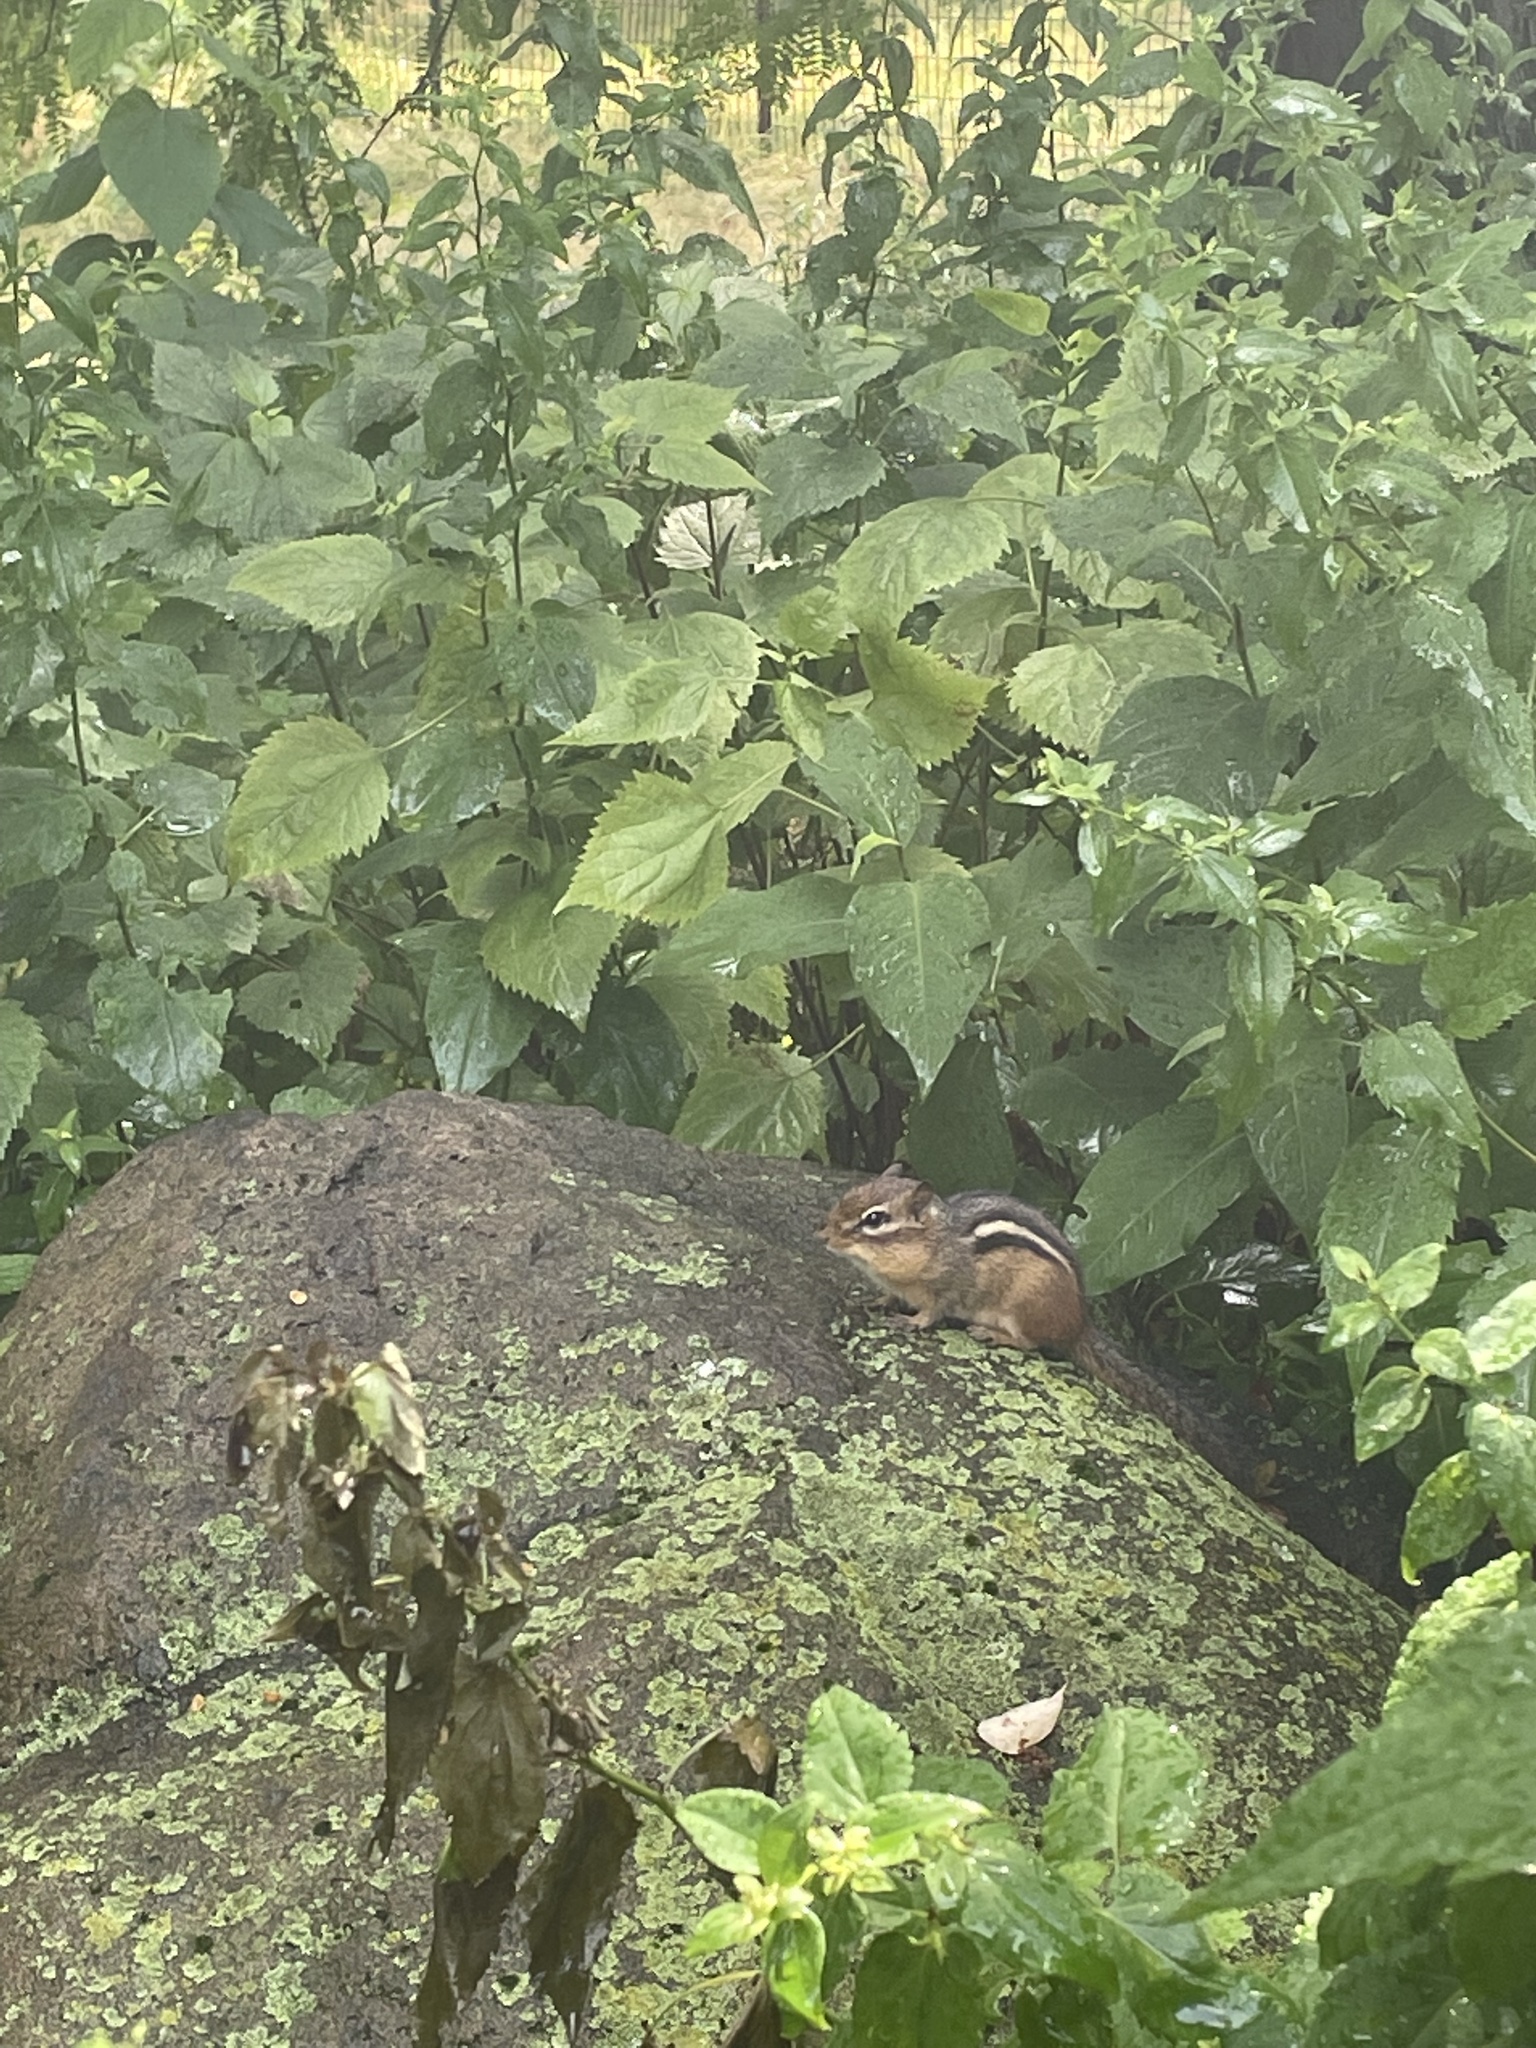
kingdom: Animalia
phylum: Chordata
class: Mammalia
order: Rodentia
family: Sciuridae
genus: Tamias
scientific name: Tamias striatus
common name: Eastern chipmunk
